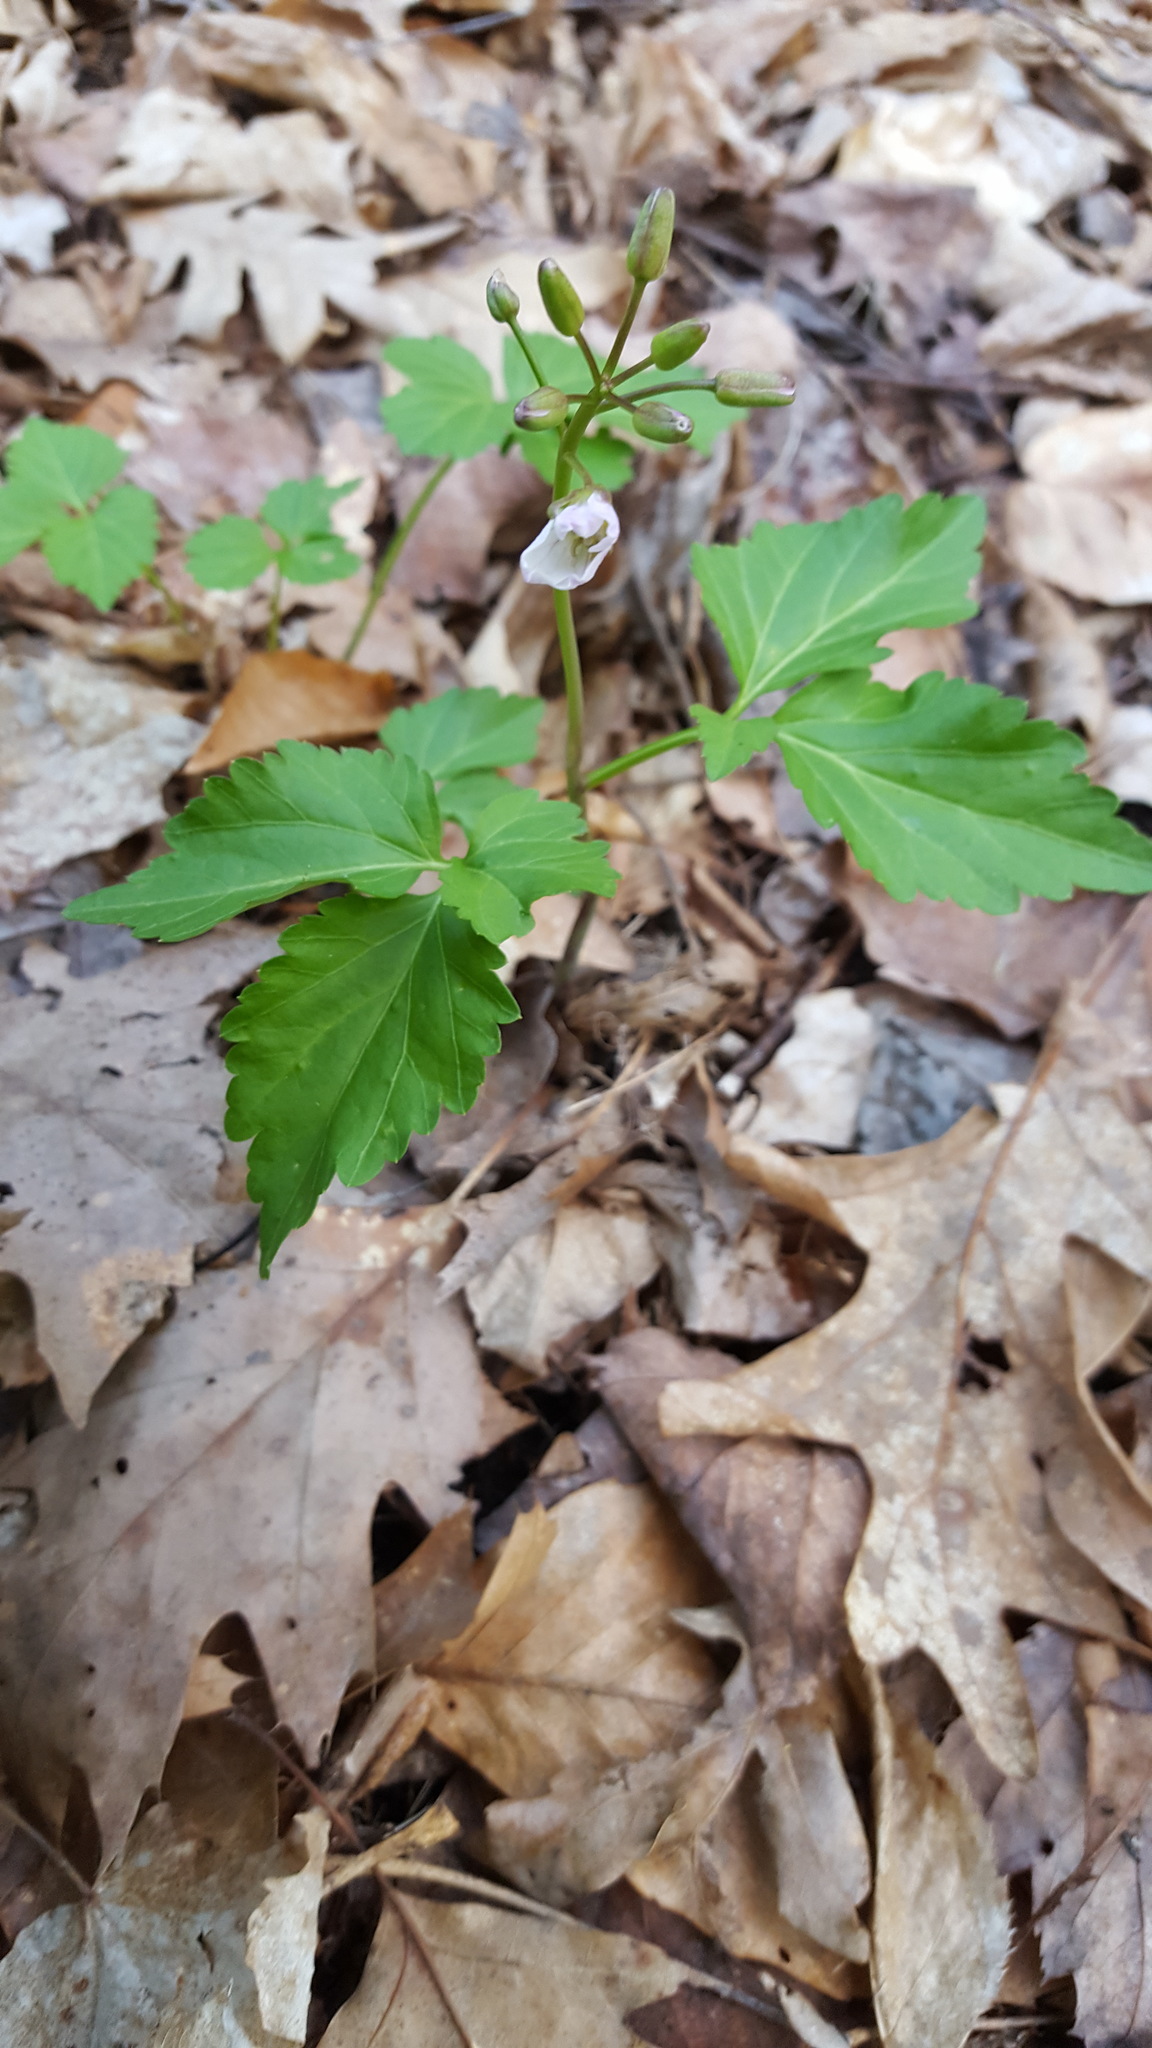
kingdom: Plantae
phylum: Tracheophyta
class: Magnoliopsida
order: Brassicales
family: Brassicaceae
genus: Cardamine
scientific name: Cardamine diphylla
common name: Broad-leaved toothwort
